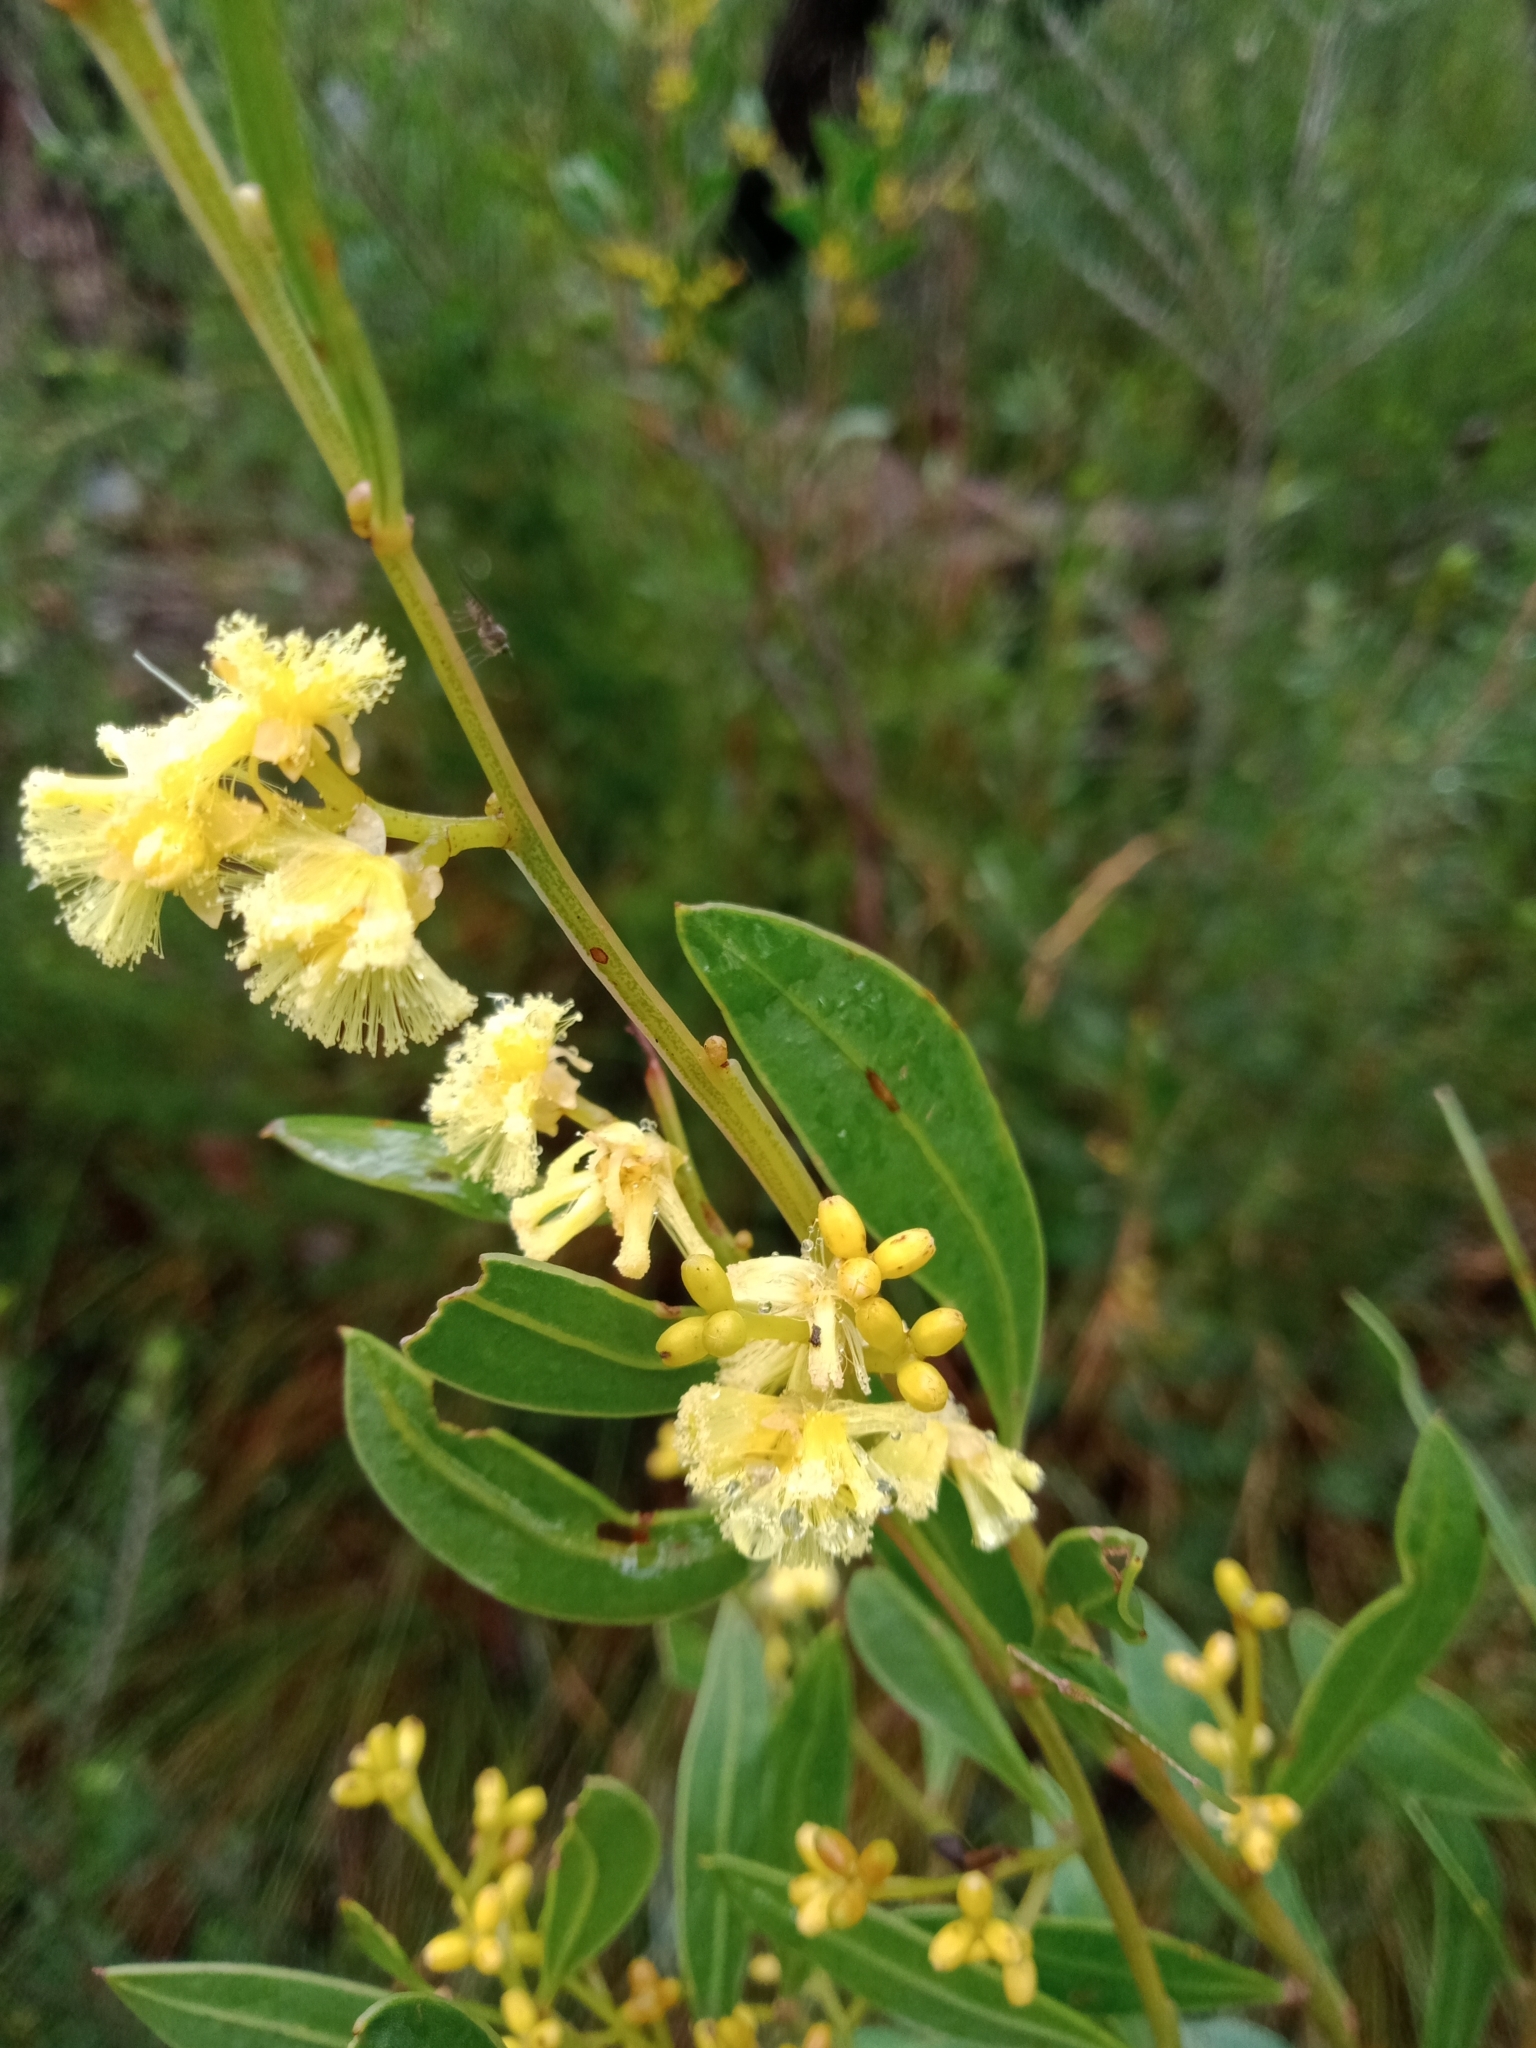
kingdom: Plantae
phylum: Tracheophyta
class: Magnoliopsida
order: Fabales
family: Fabaceae
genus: Acacia
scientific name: Acacia myrtifolia
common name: Myrtle wattle
